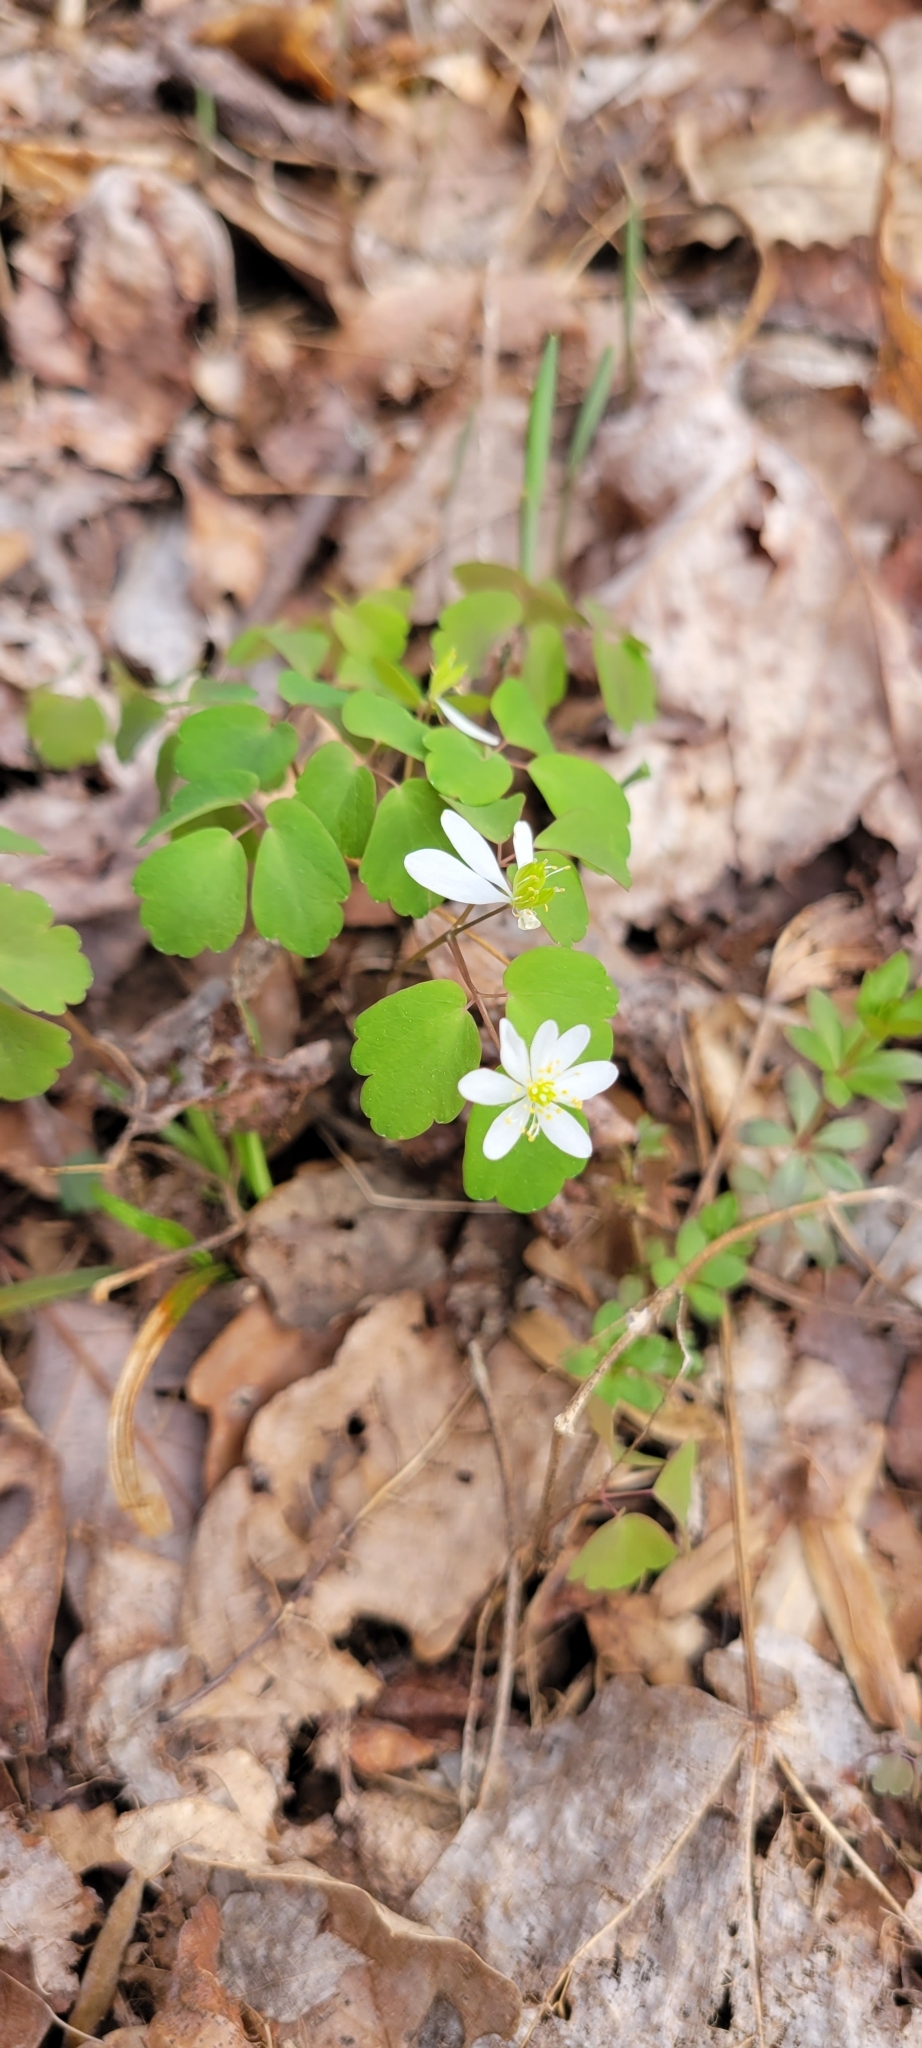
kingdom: Plantae
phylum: Tracheophyta
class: Magnoliopsida
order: Ranunculales
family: Ranunculaceae
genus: Thalictrum
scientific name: Thalictrum thalictroides
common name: Rue-anemone
